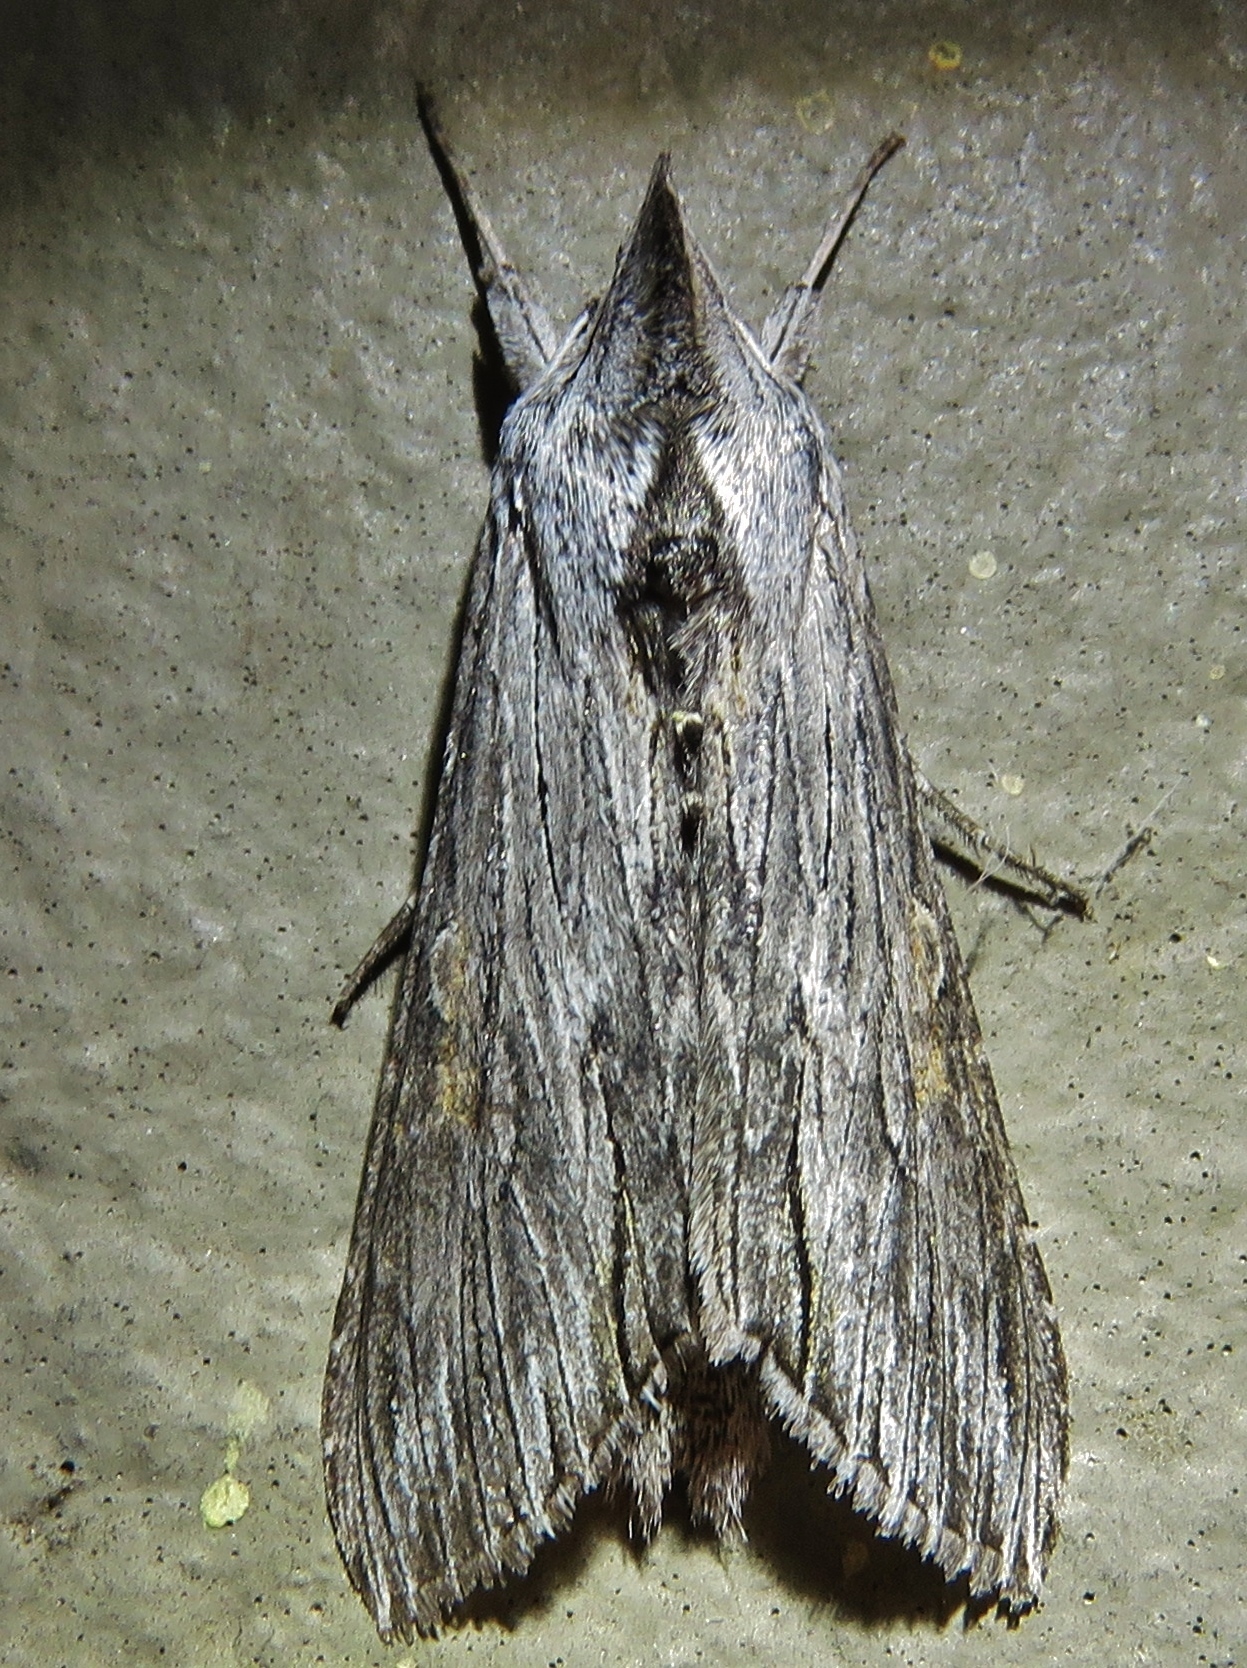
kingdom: Animalia
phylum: Arthropoda
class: Insecta
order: Lepidoptera
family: Noctuidae
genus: Cucullia
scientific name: Cucullia laetifica
